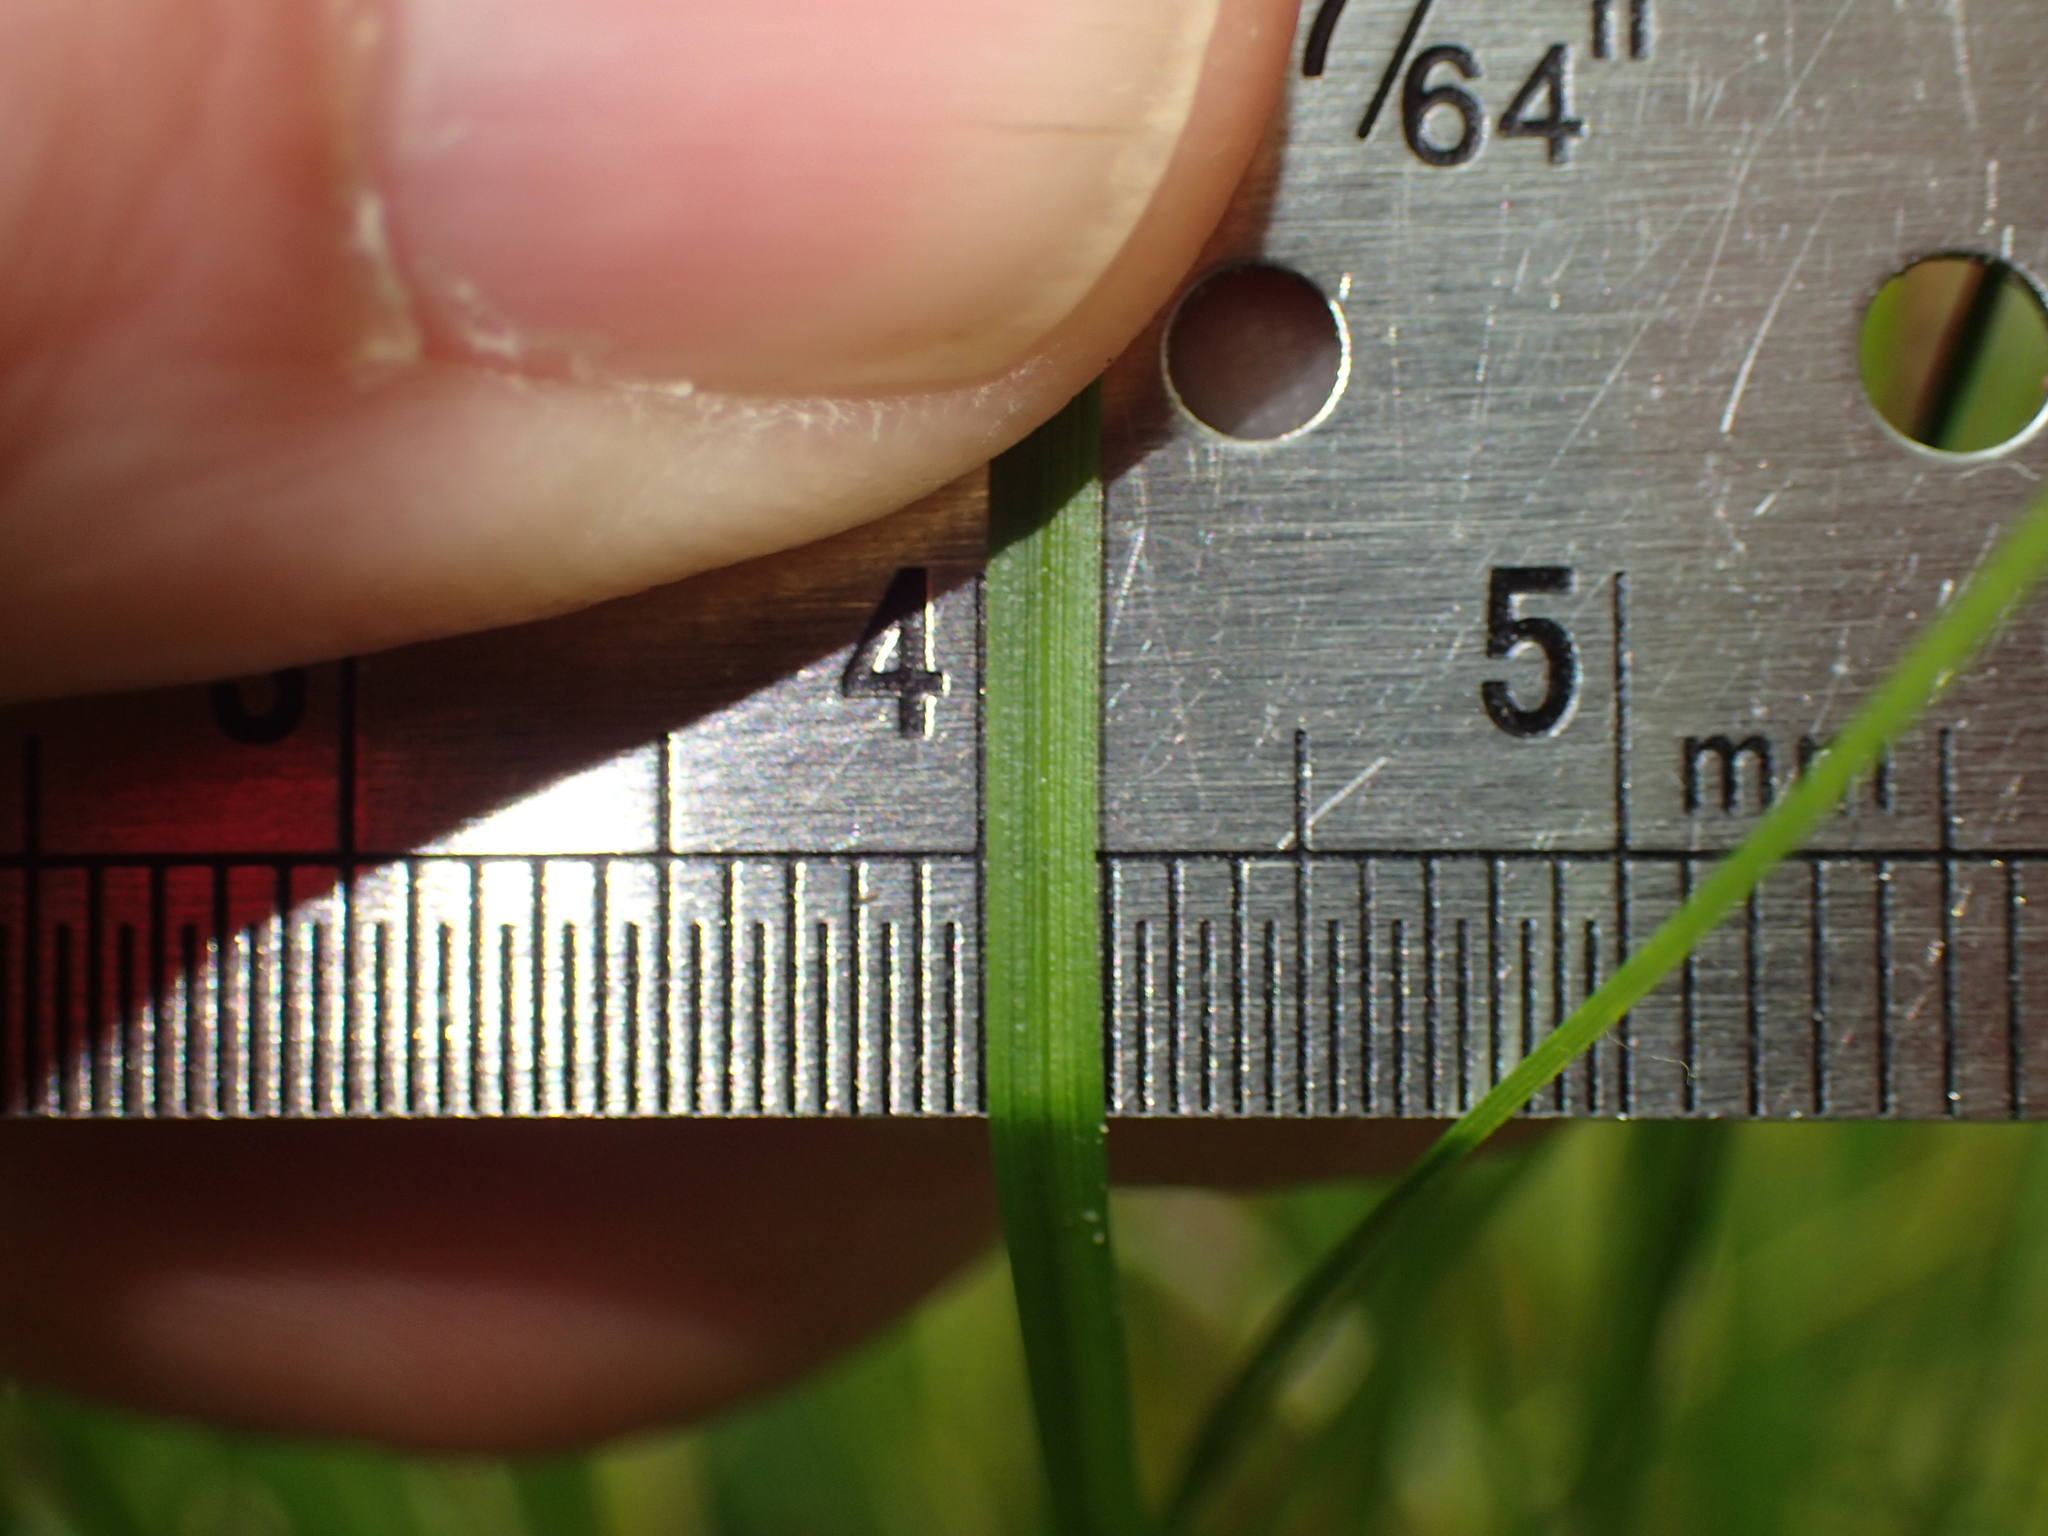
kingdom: Plantae
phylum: Tracheophyta
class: Liliopsida
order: Poales
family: Cyperaceae
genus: Carex
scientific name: Carex pensylvanica
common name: Common oak sedge
